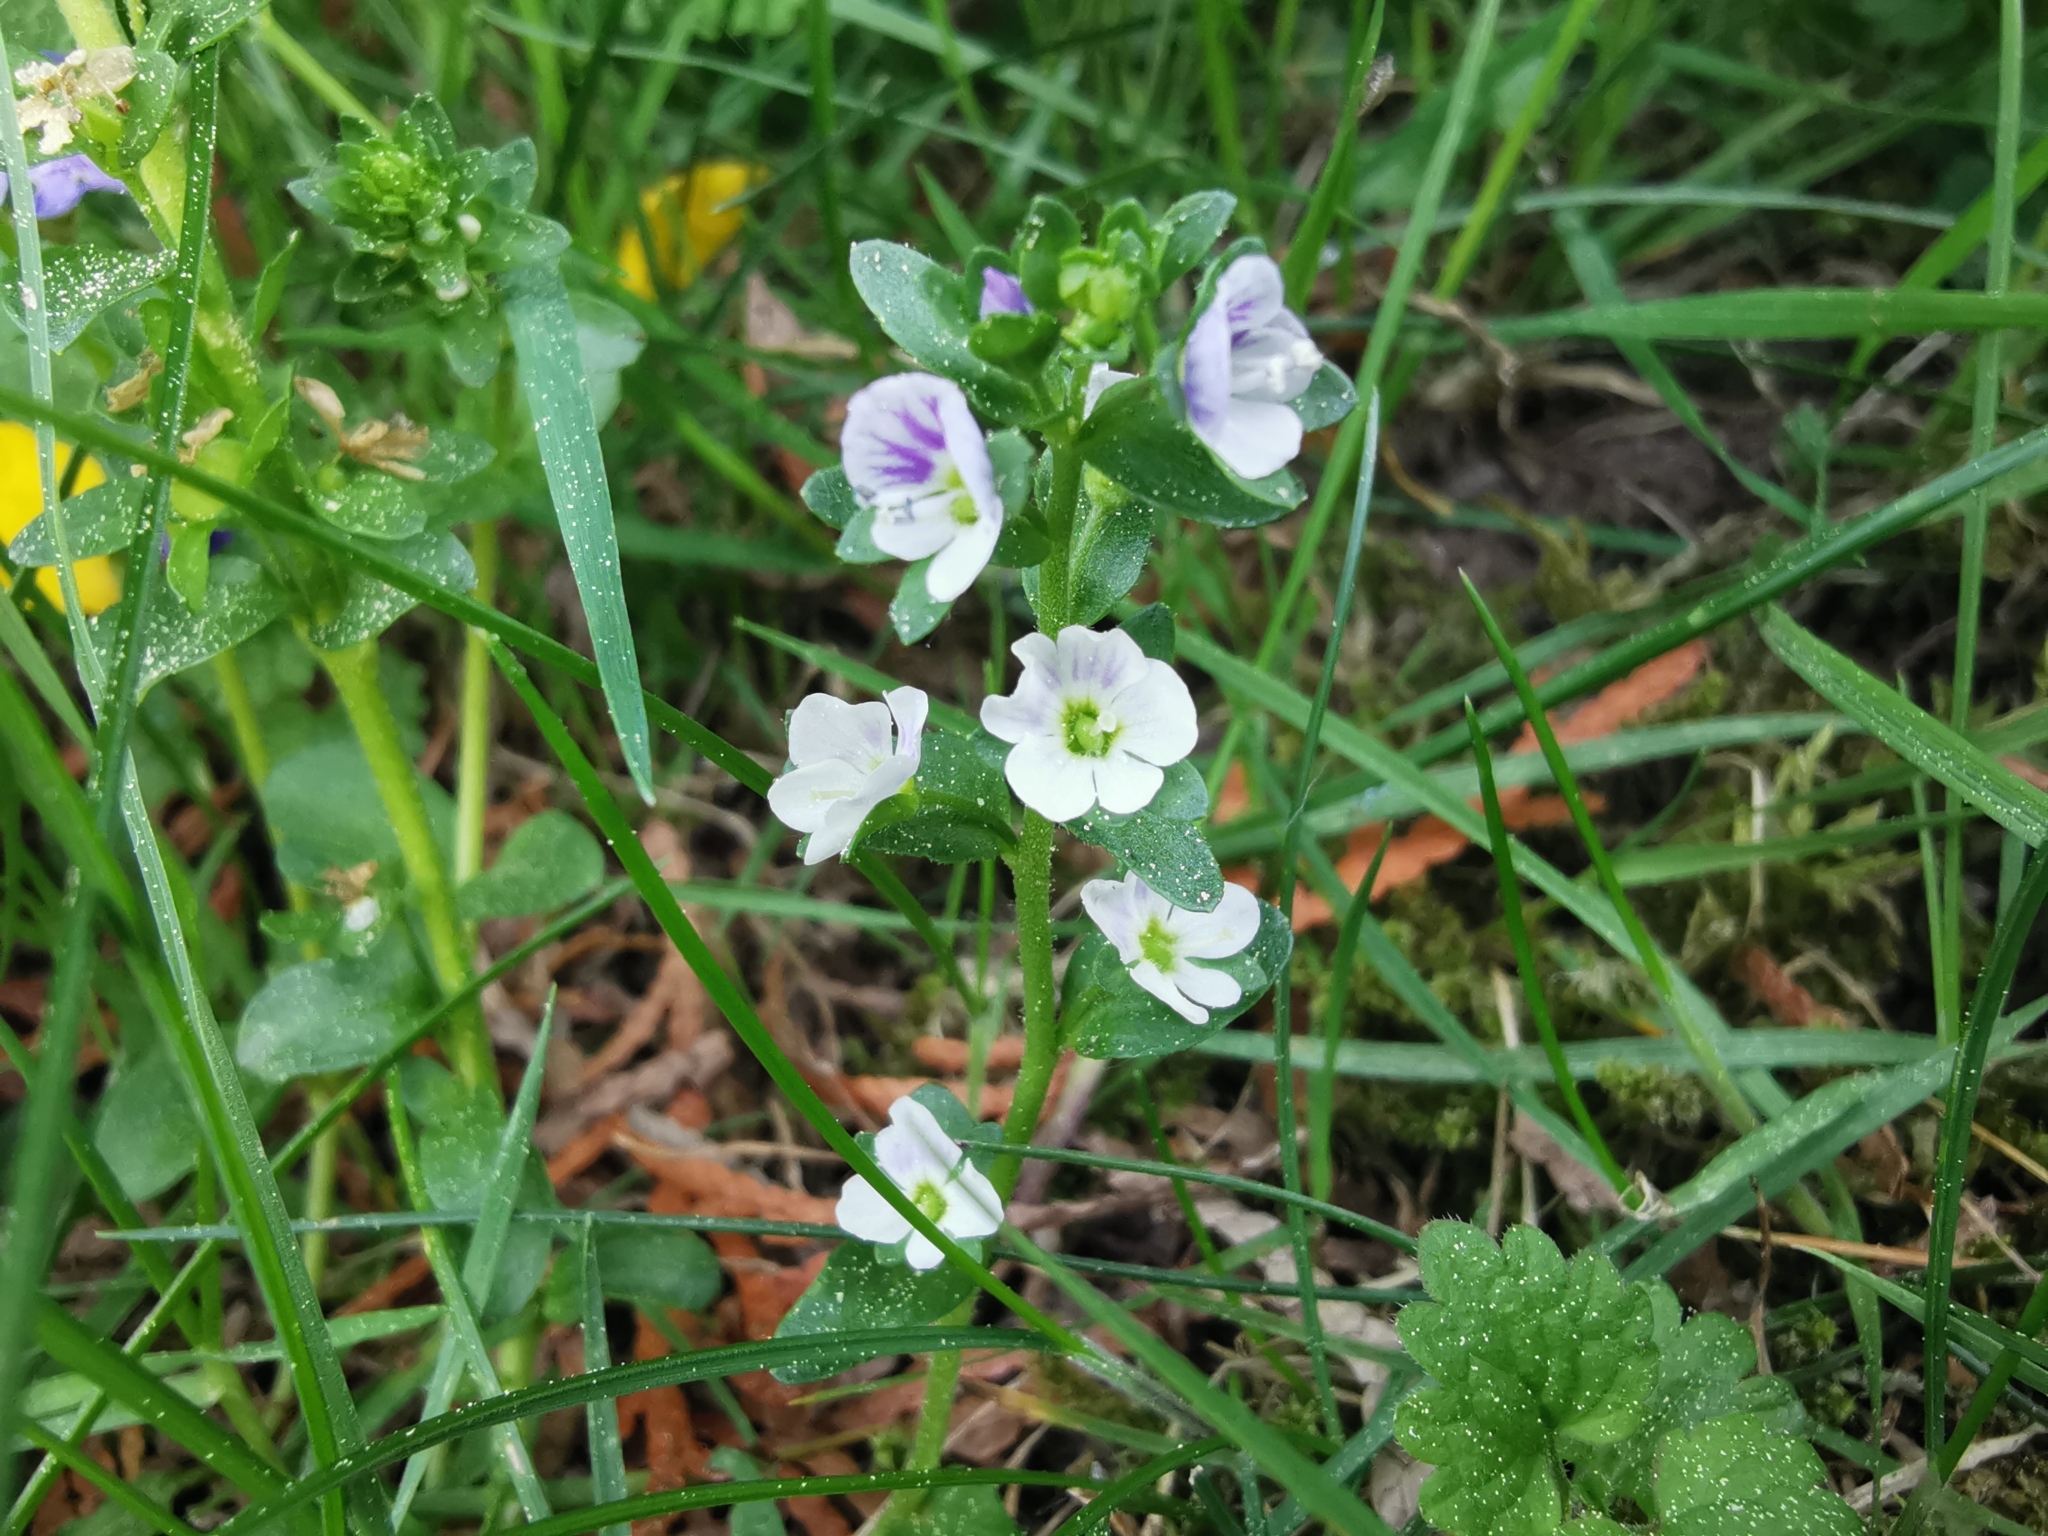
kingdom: Plantae
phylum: Tracheophyta
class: Magnoliopsida
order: Lamiales
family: Plantaginaceae
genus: Veronica
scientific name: Veronica serpyllifolia
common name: Thyme-leaved speedwell
